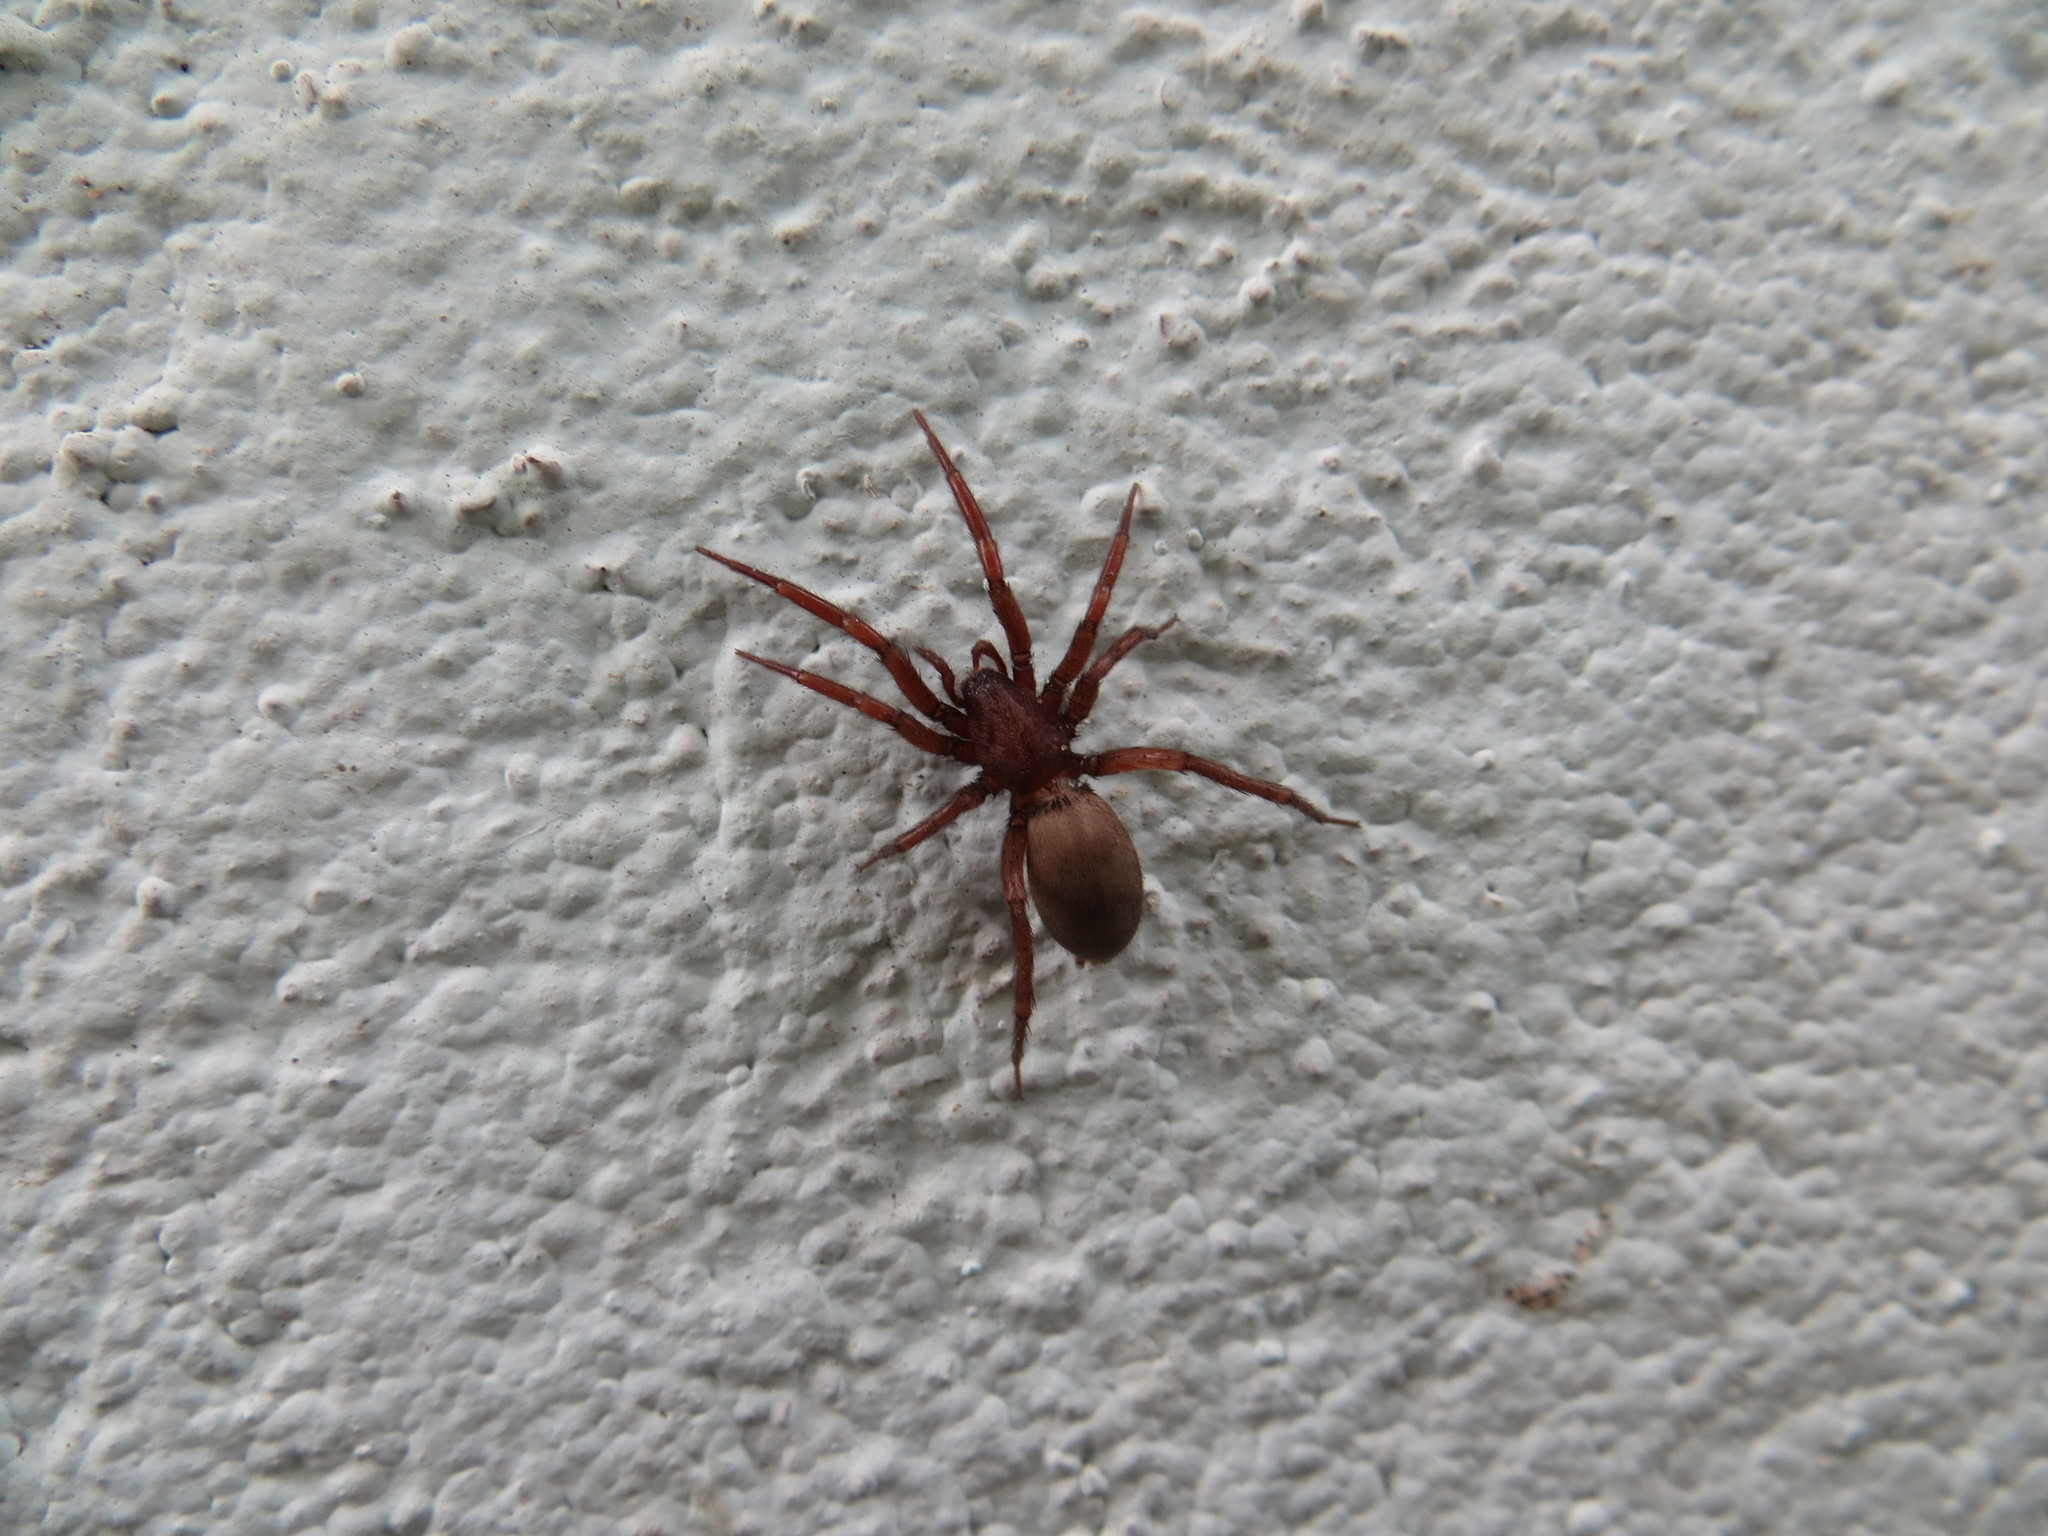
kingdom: Animalia
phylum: Arthropoda
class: Arachnida
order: Araneae
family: Gnaphosidae
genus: Urozelotes
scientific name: Urozelotes rusticus
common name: Spider
